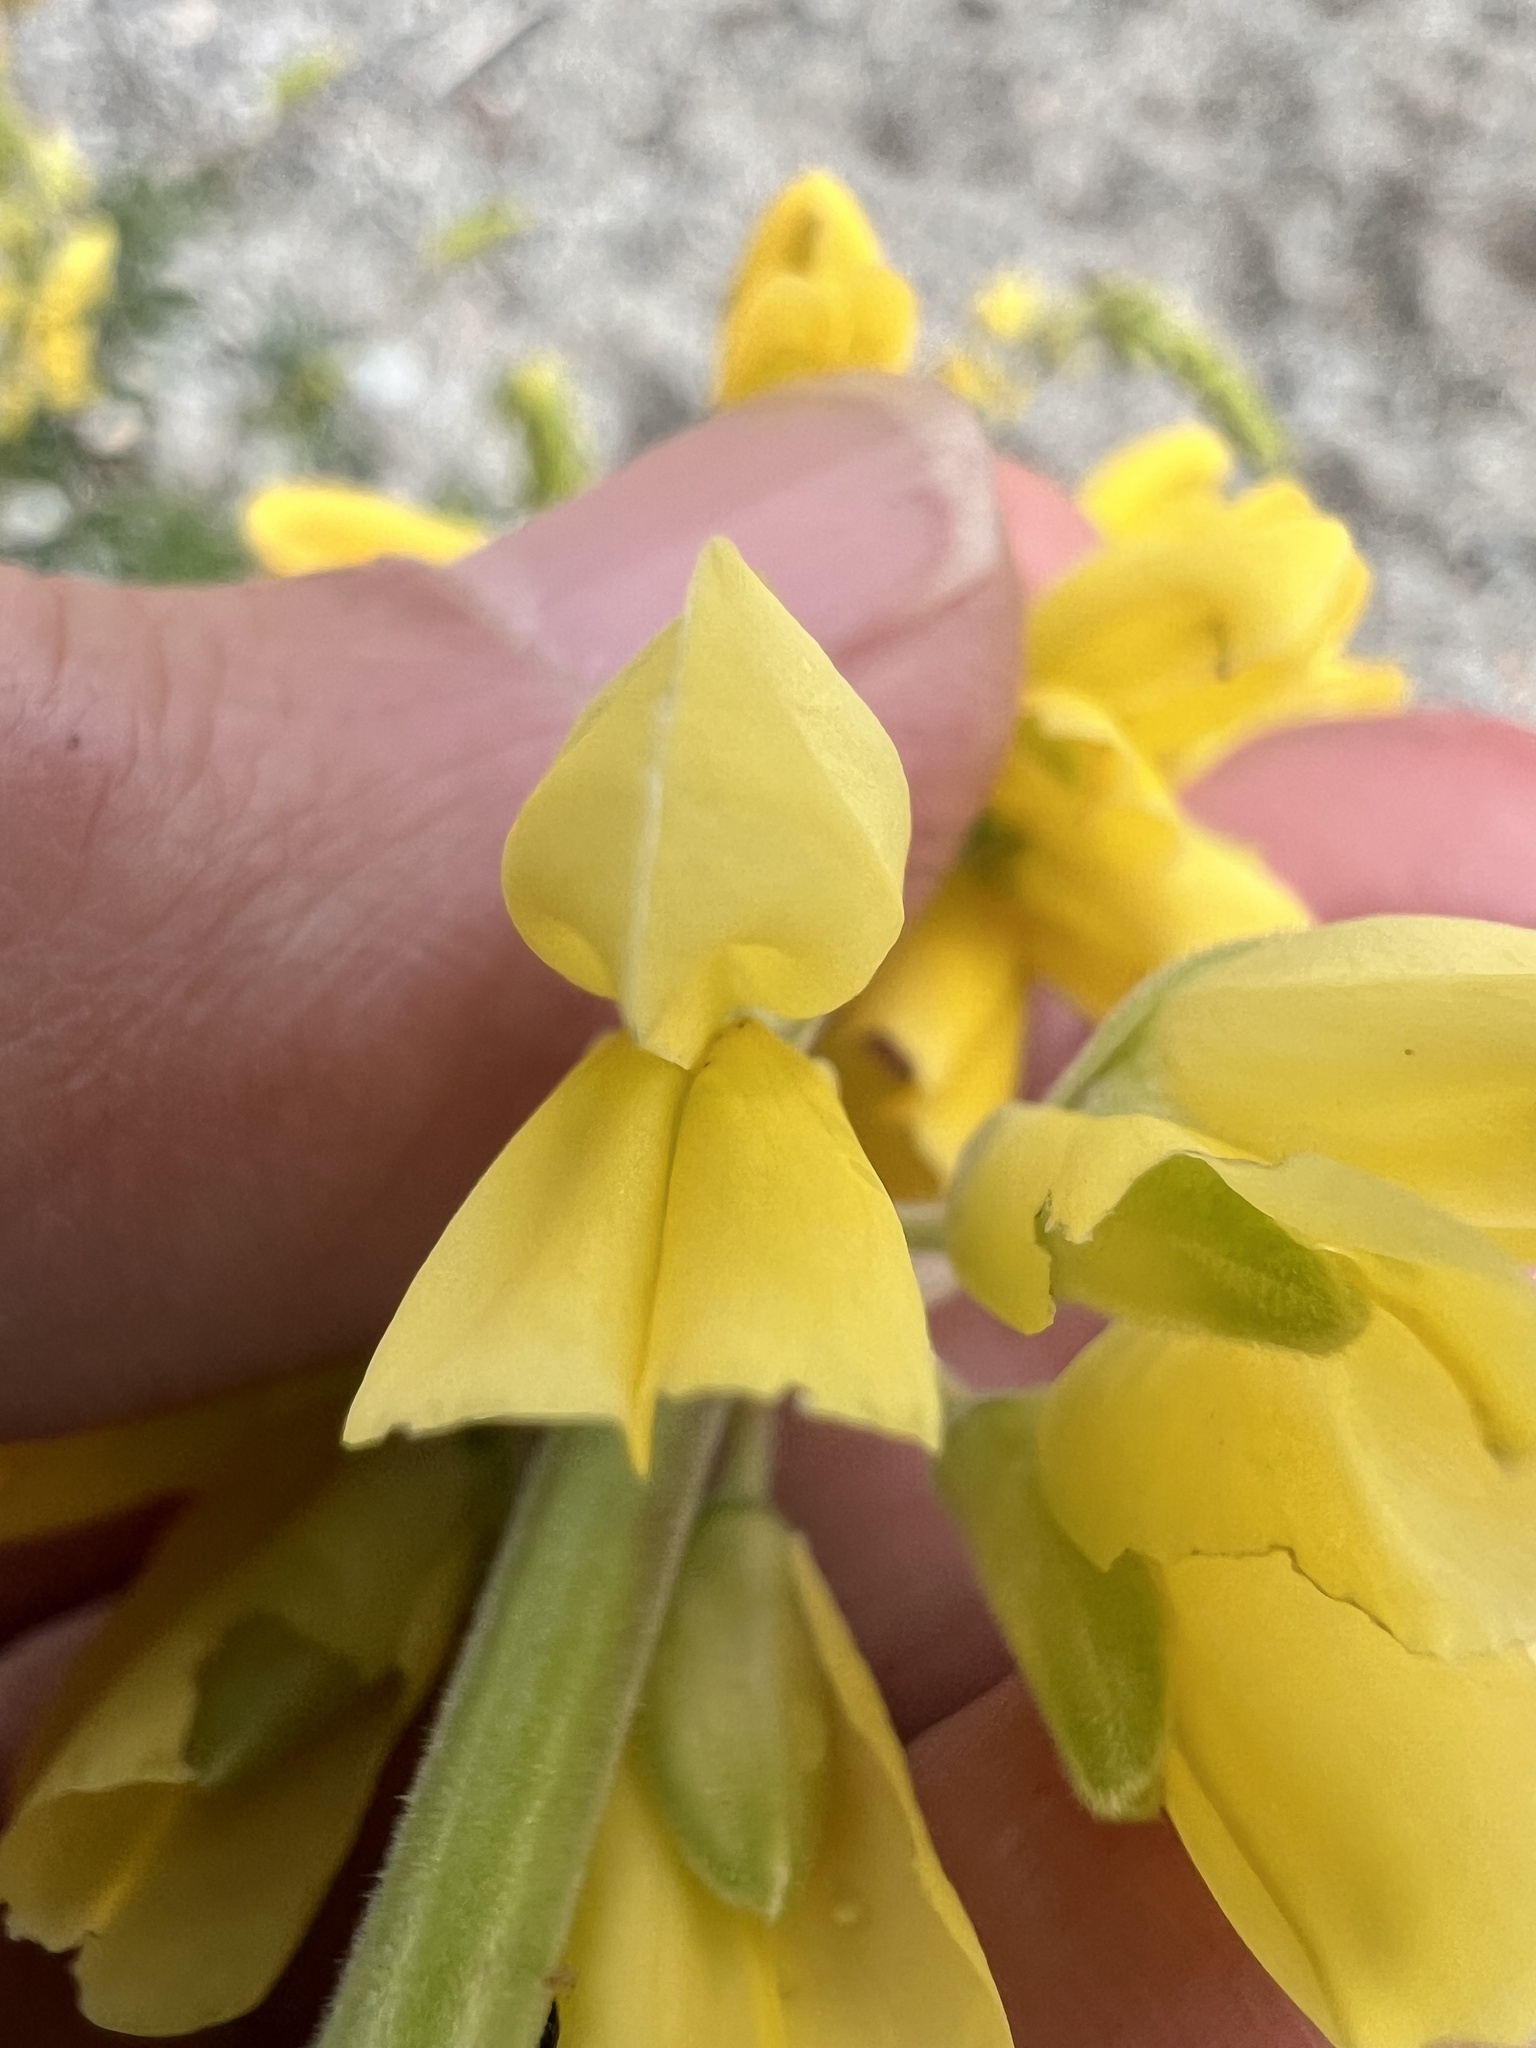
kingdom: Plantae
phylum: Tracheophyta
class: Magnoliopsida
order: Fabales
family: Fabaceae
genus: Lupinus
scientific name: Lupinus arboreus
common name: Yellow bush lupine
